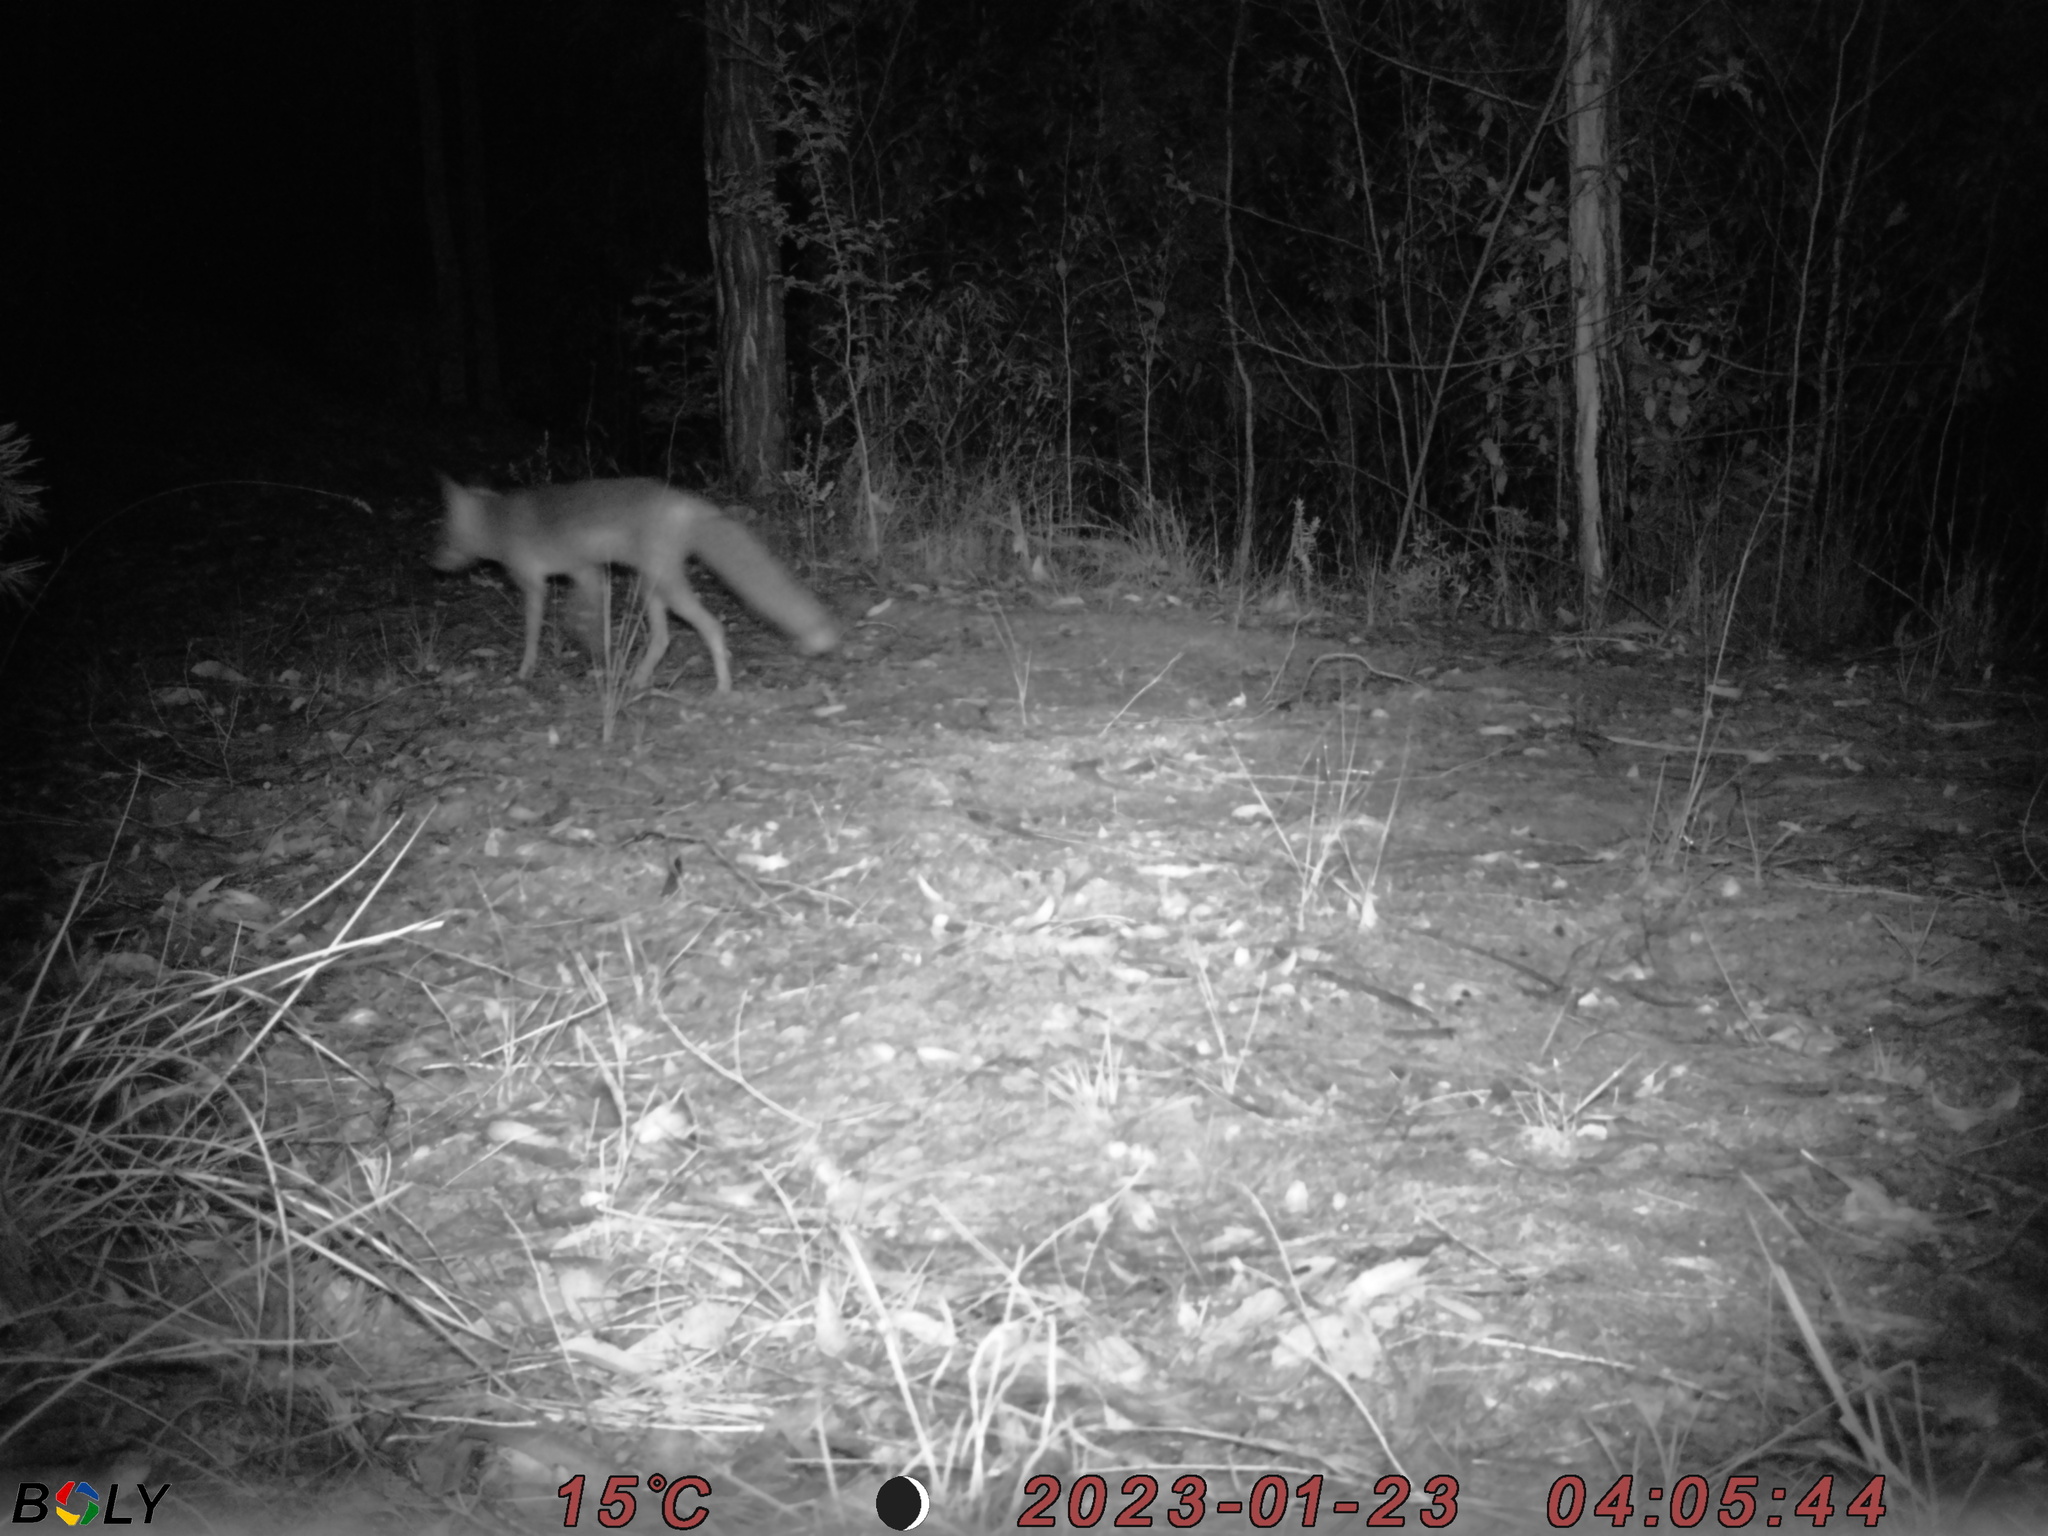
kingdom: Animalia
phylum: Chordata
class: Mammalia
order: Carnivora
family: Canidae
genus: Vulpes
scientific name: Vulpes vulpes
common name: Red fox
